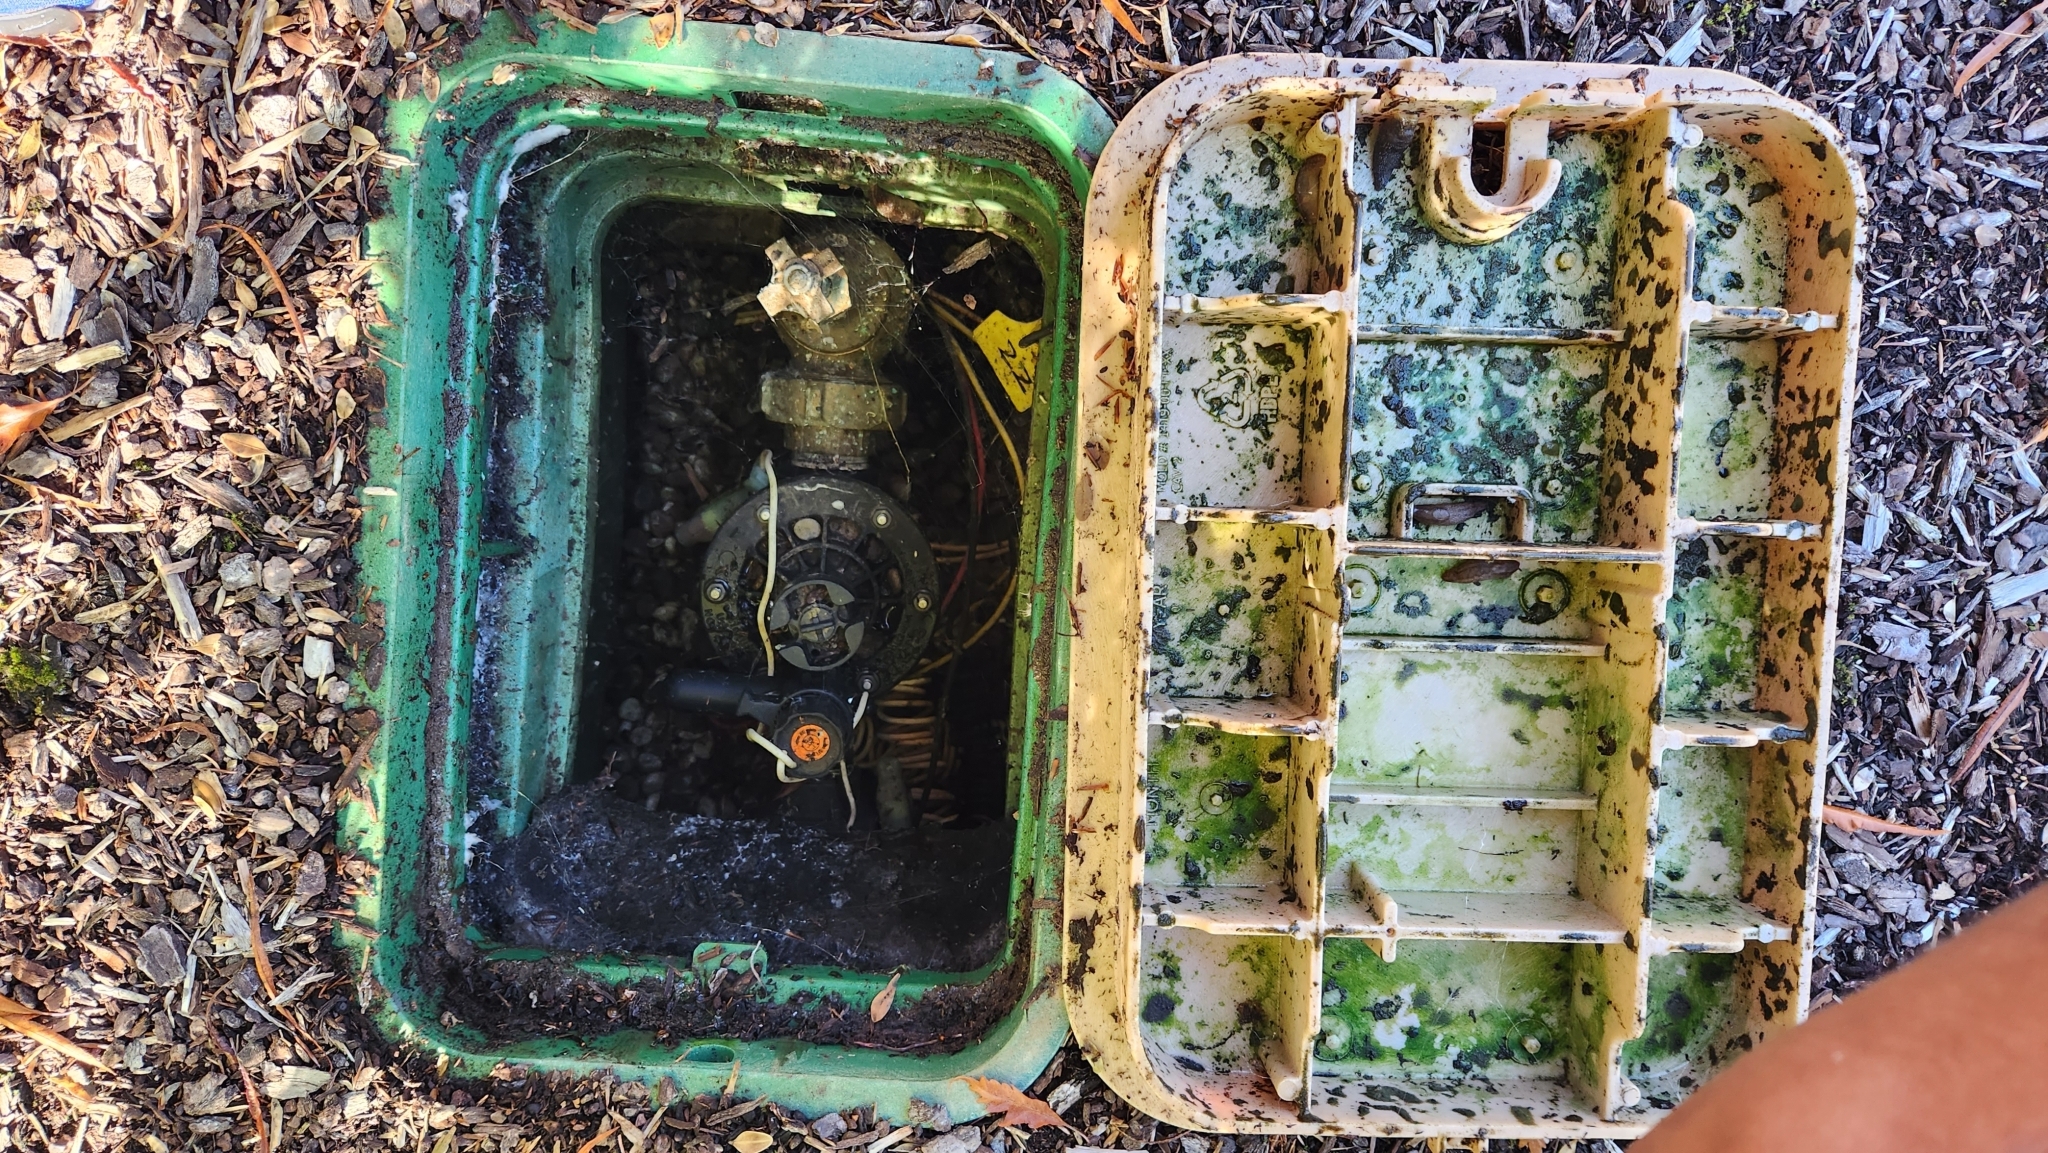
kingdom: Animalia
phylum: Mollusca
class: Gastropoda
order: Stylommatophora
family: Limacidae
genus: Limacus
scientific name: Limacus flavus
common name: Yellow gardenslug
